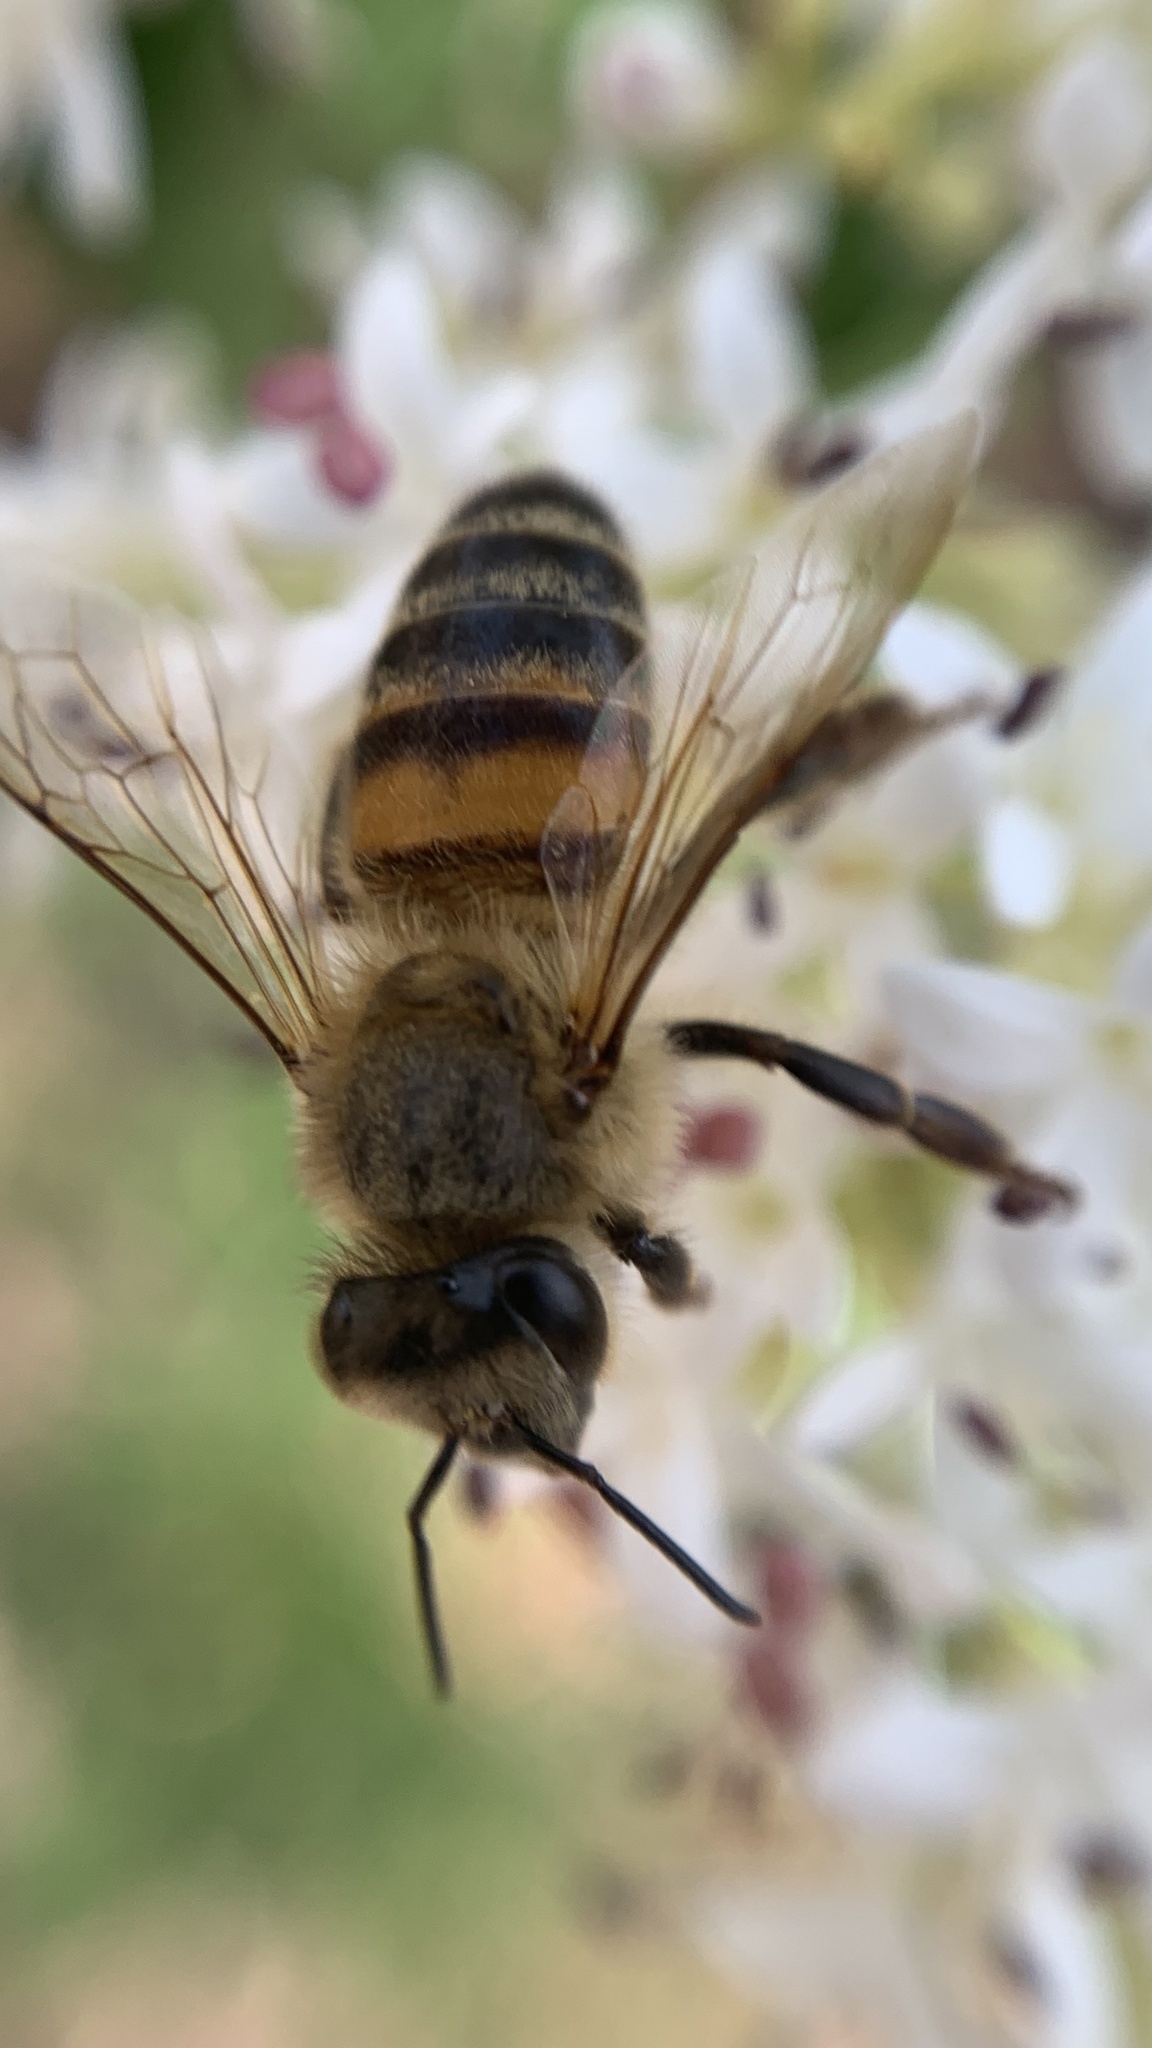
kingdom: Animalia
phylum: Arthropoda
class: Insecta
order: Hymenoptera
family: Apidae
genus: Apis
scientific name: Apis mellifera
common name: Honey bee
